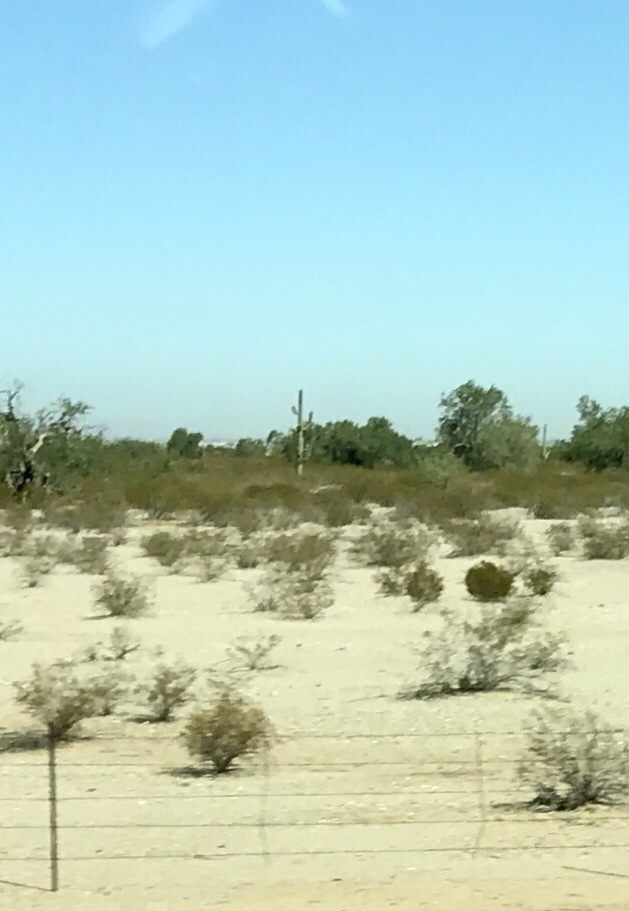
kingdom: Plantae
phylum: Tracheophyta
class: Magnoliopsida
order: Caryophyllales
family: Cactaceae
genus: Carnegiea
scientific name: Carnegiea gigantea
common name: Saguaro
